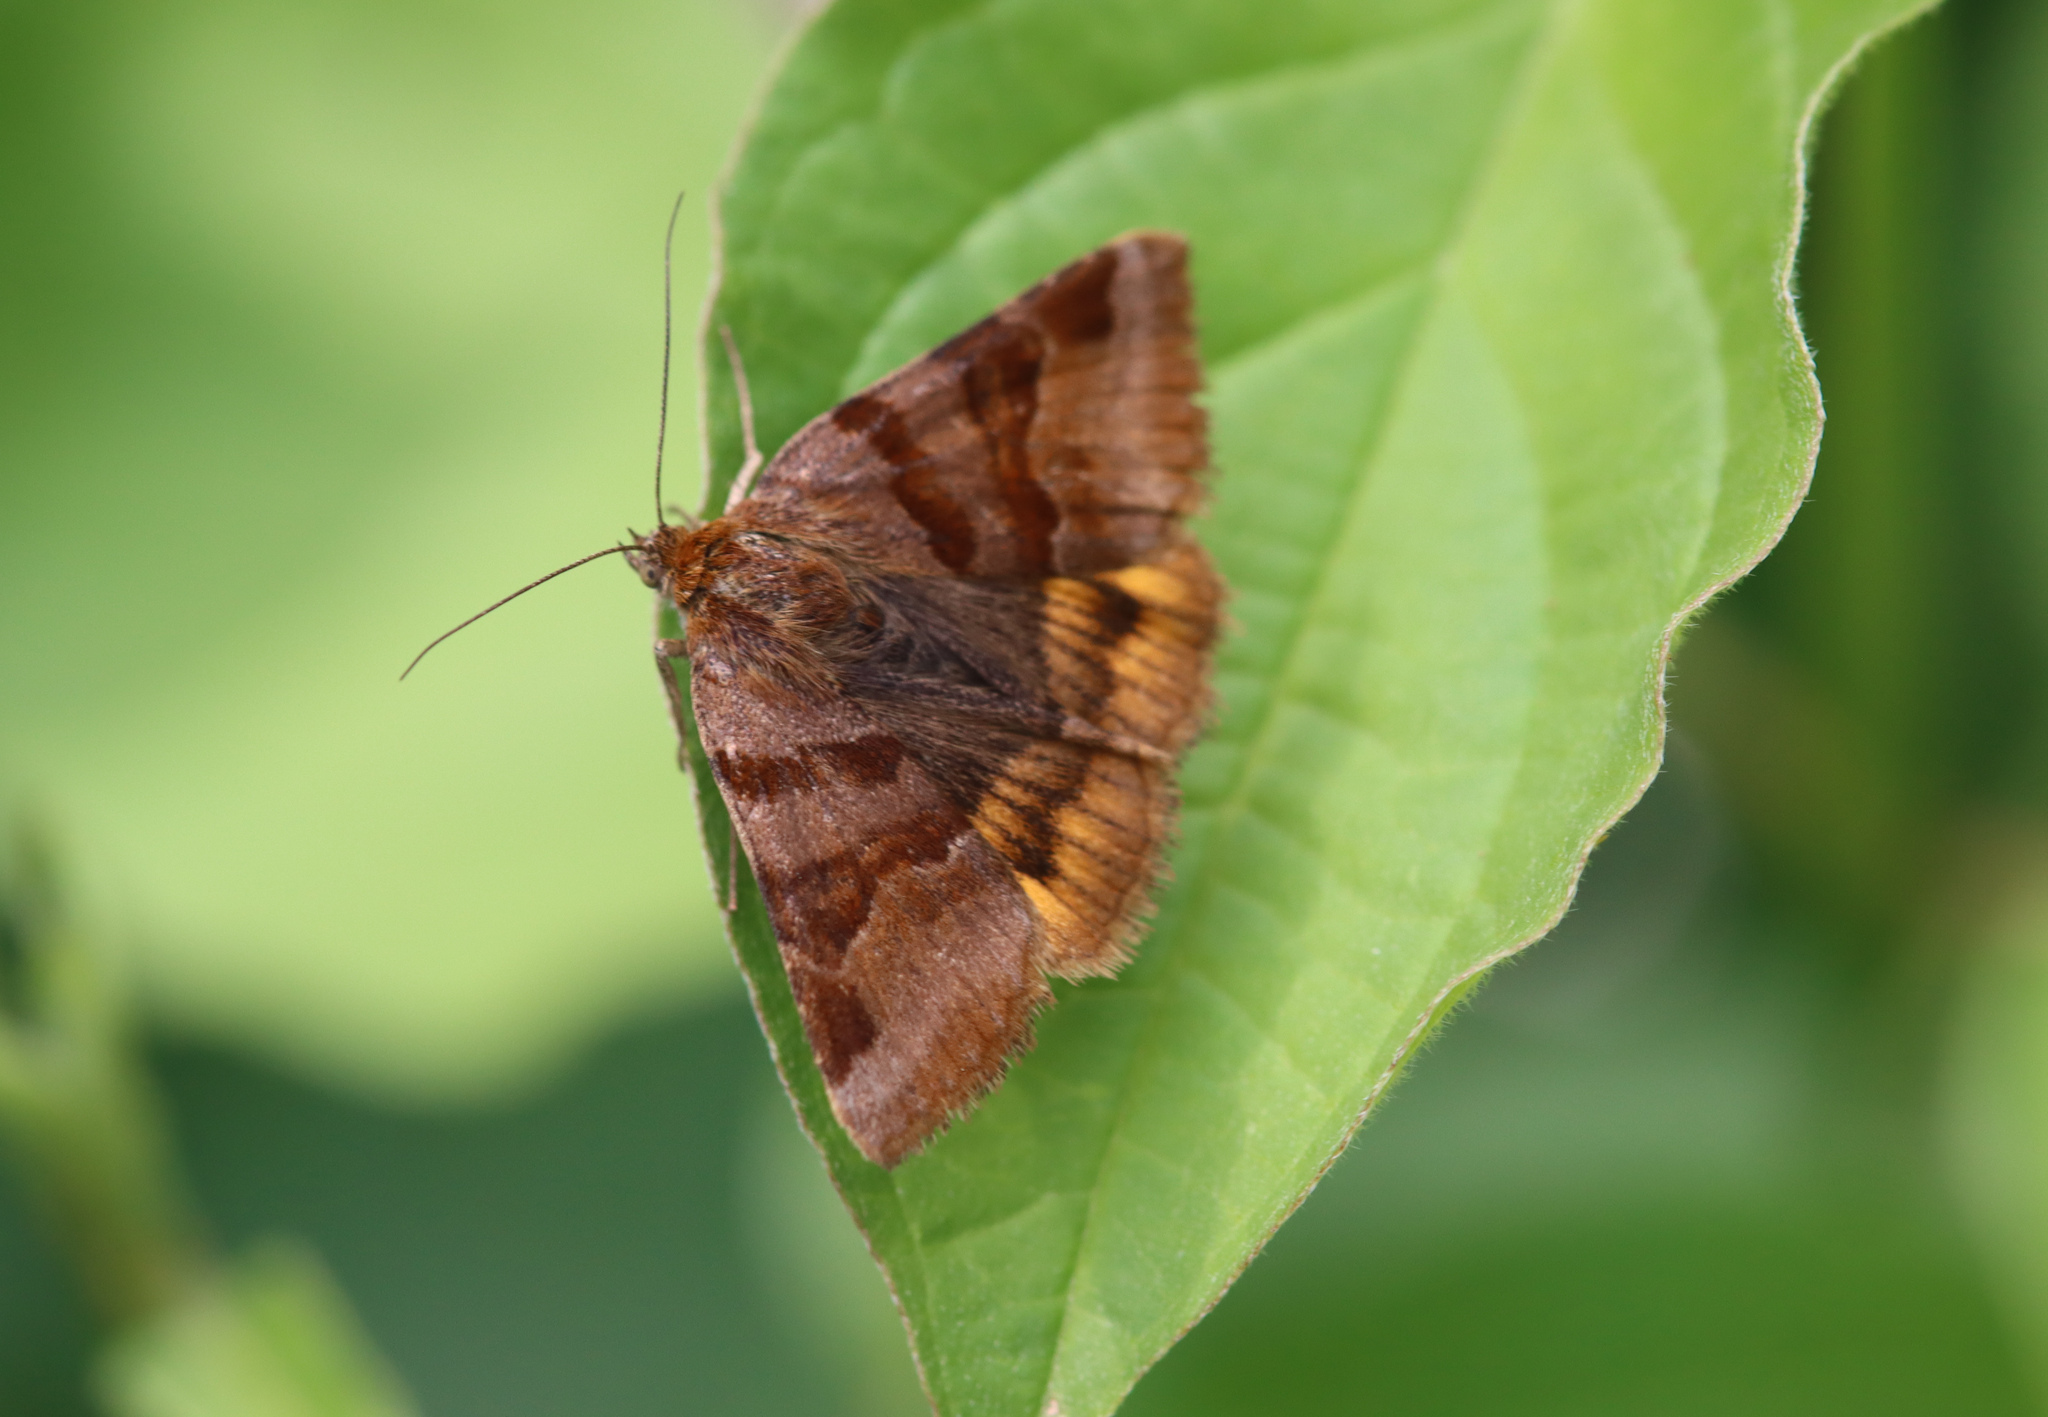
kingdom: Animalia
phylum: Arthropoda
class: Insecta
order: Lepidoptera
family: Erebidae
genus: Euclidia
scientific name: Euclidia glyphica
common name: Burnet companion
